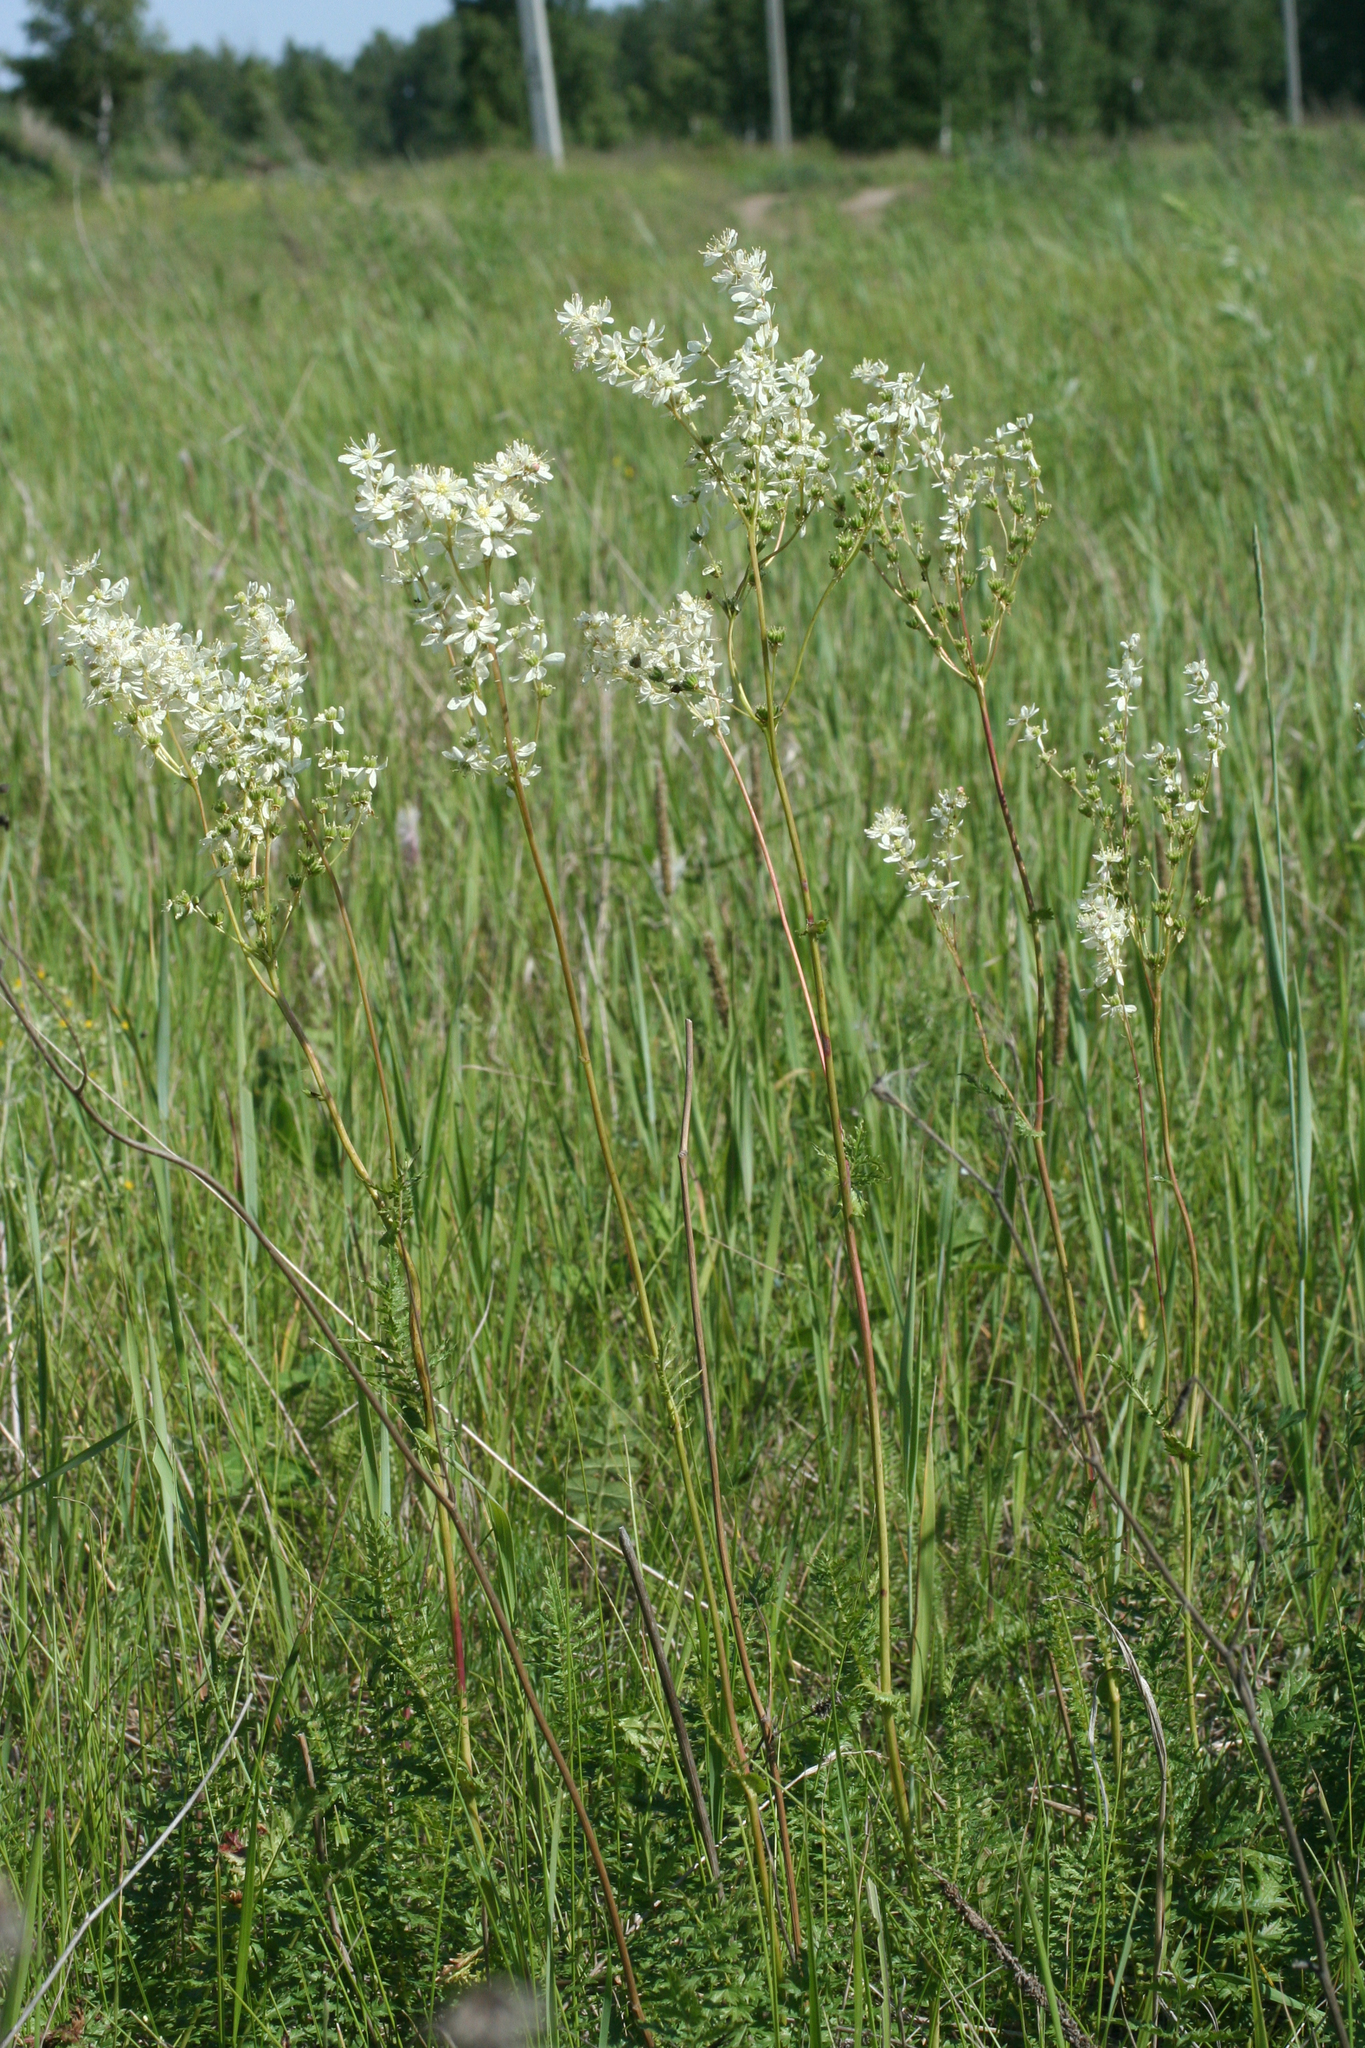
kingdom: Plantae
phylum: Tracheophyta
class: Magnoliopsida
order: Rosales
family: Rosaceae
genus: Filipendula
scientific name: Filipendula vulgaris
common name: Dropwort
